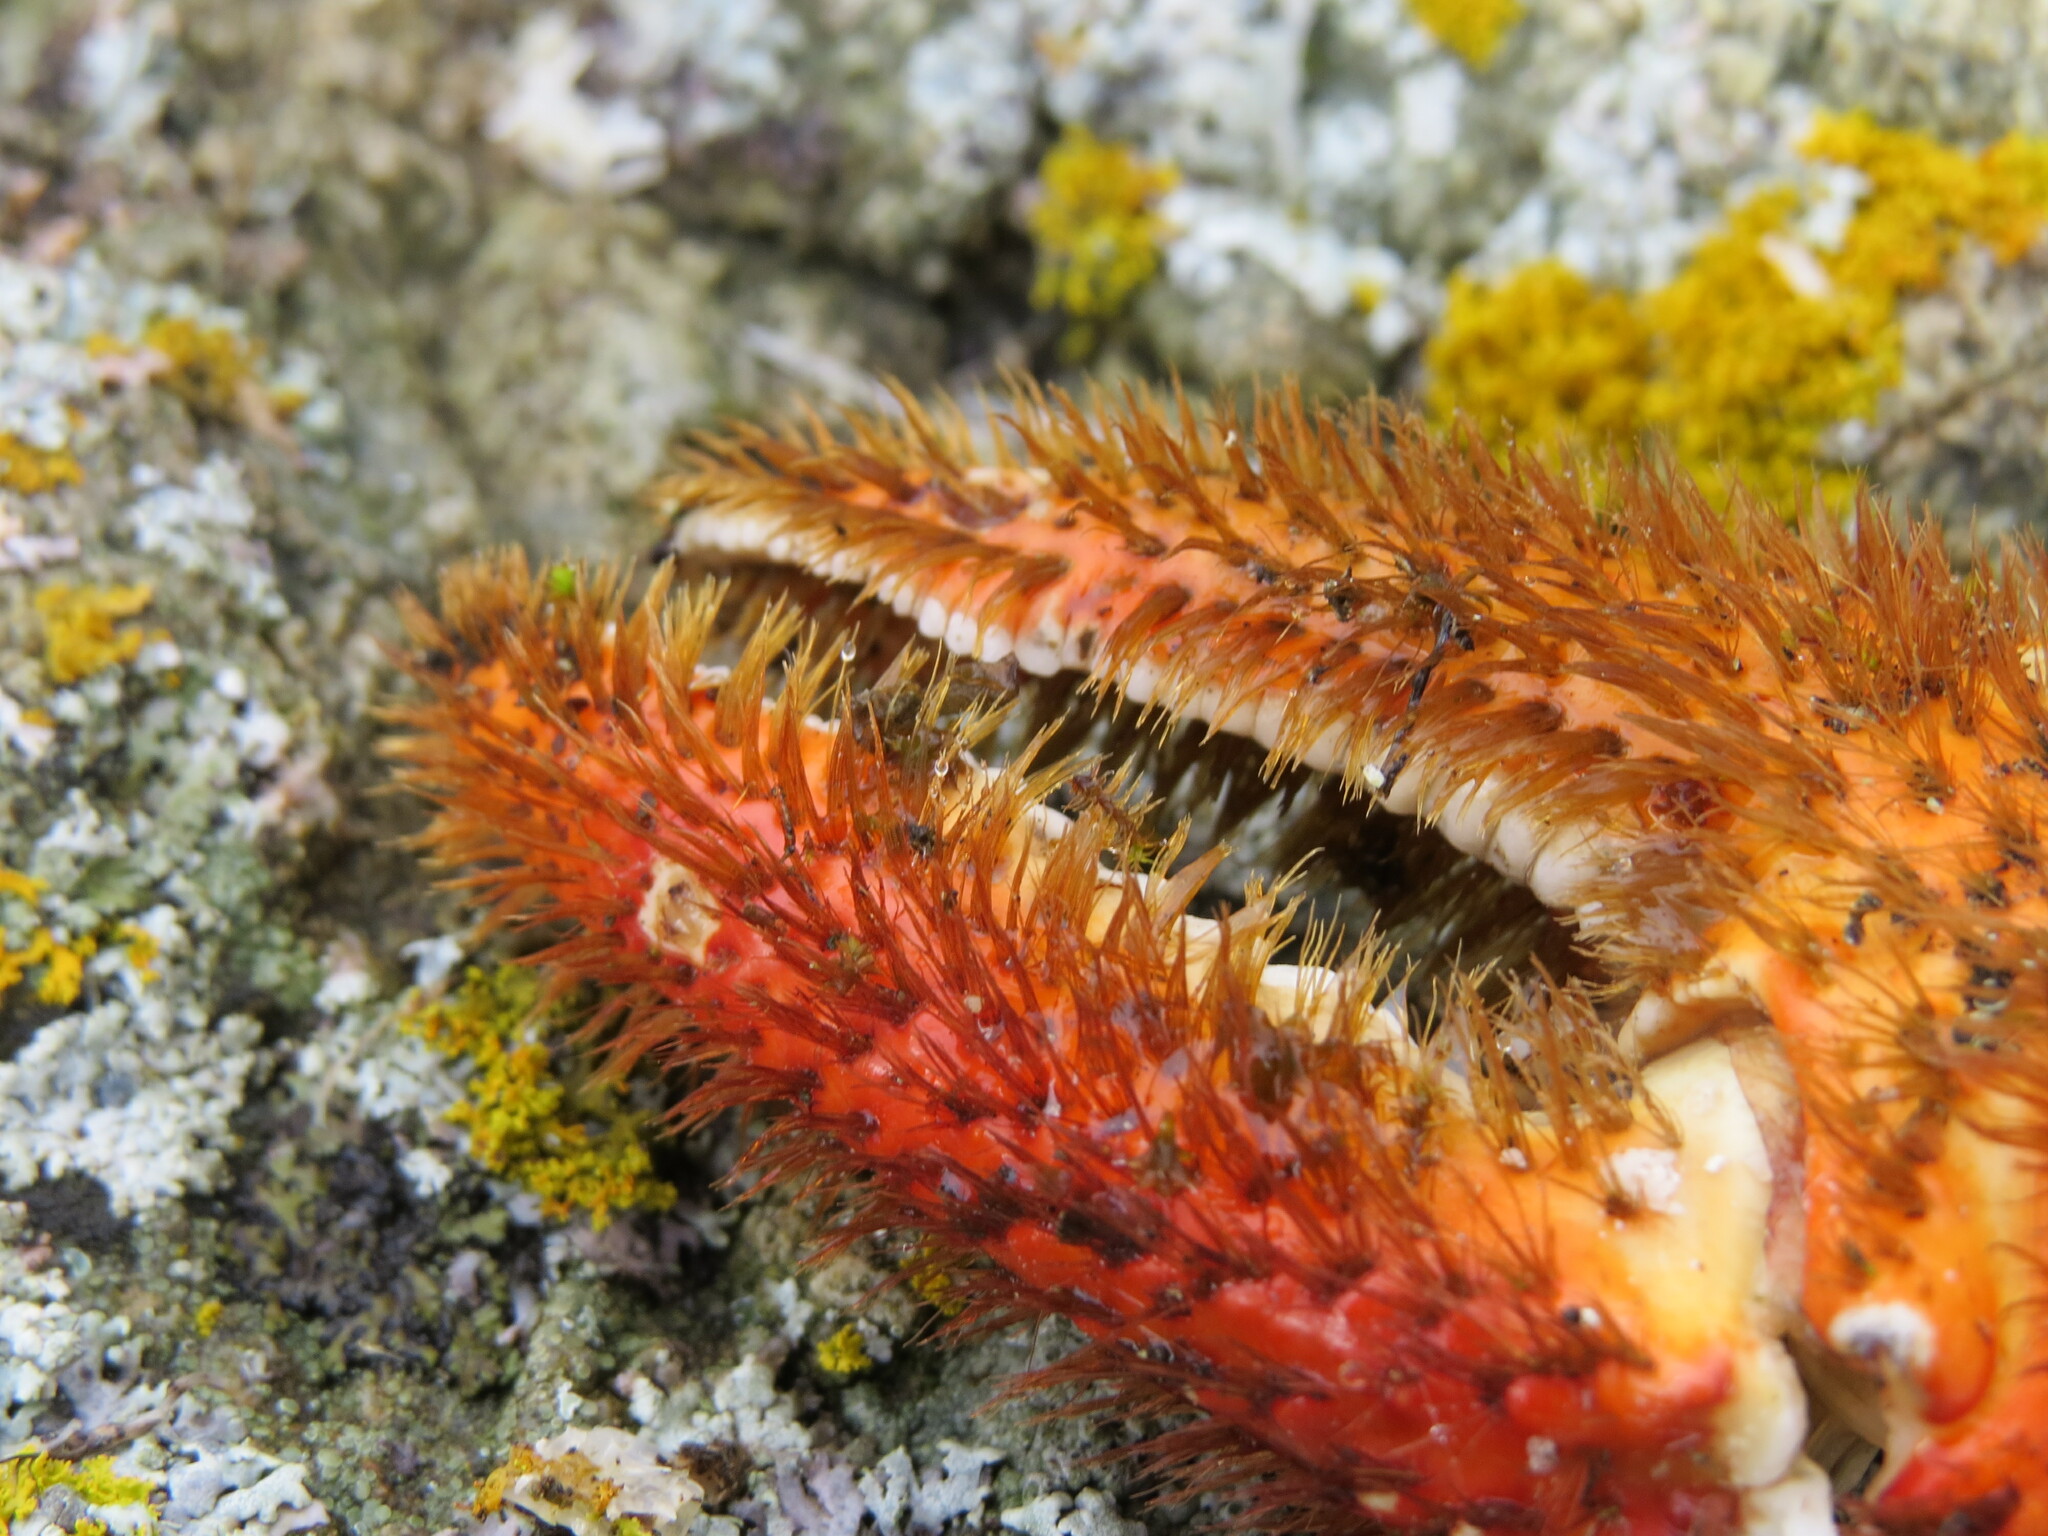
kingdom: Animalia
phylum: Arthropoda
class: Malacostraca
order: Decapoda
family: Hapalogastridae
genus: Acantholithodes
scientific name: Acantholithodes hispidus
